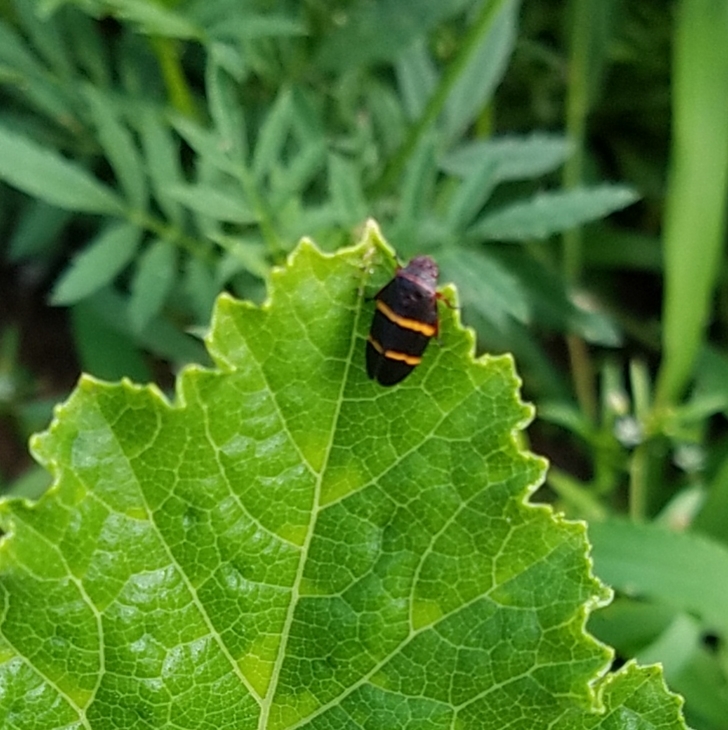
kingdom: Animalia
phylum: Arthropoda
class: Insecta
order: Hemiptera
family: Cercopidae
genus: Prosapia
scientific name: Prosapia bicincta
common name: Twolined spittlebug
